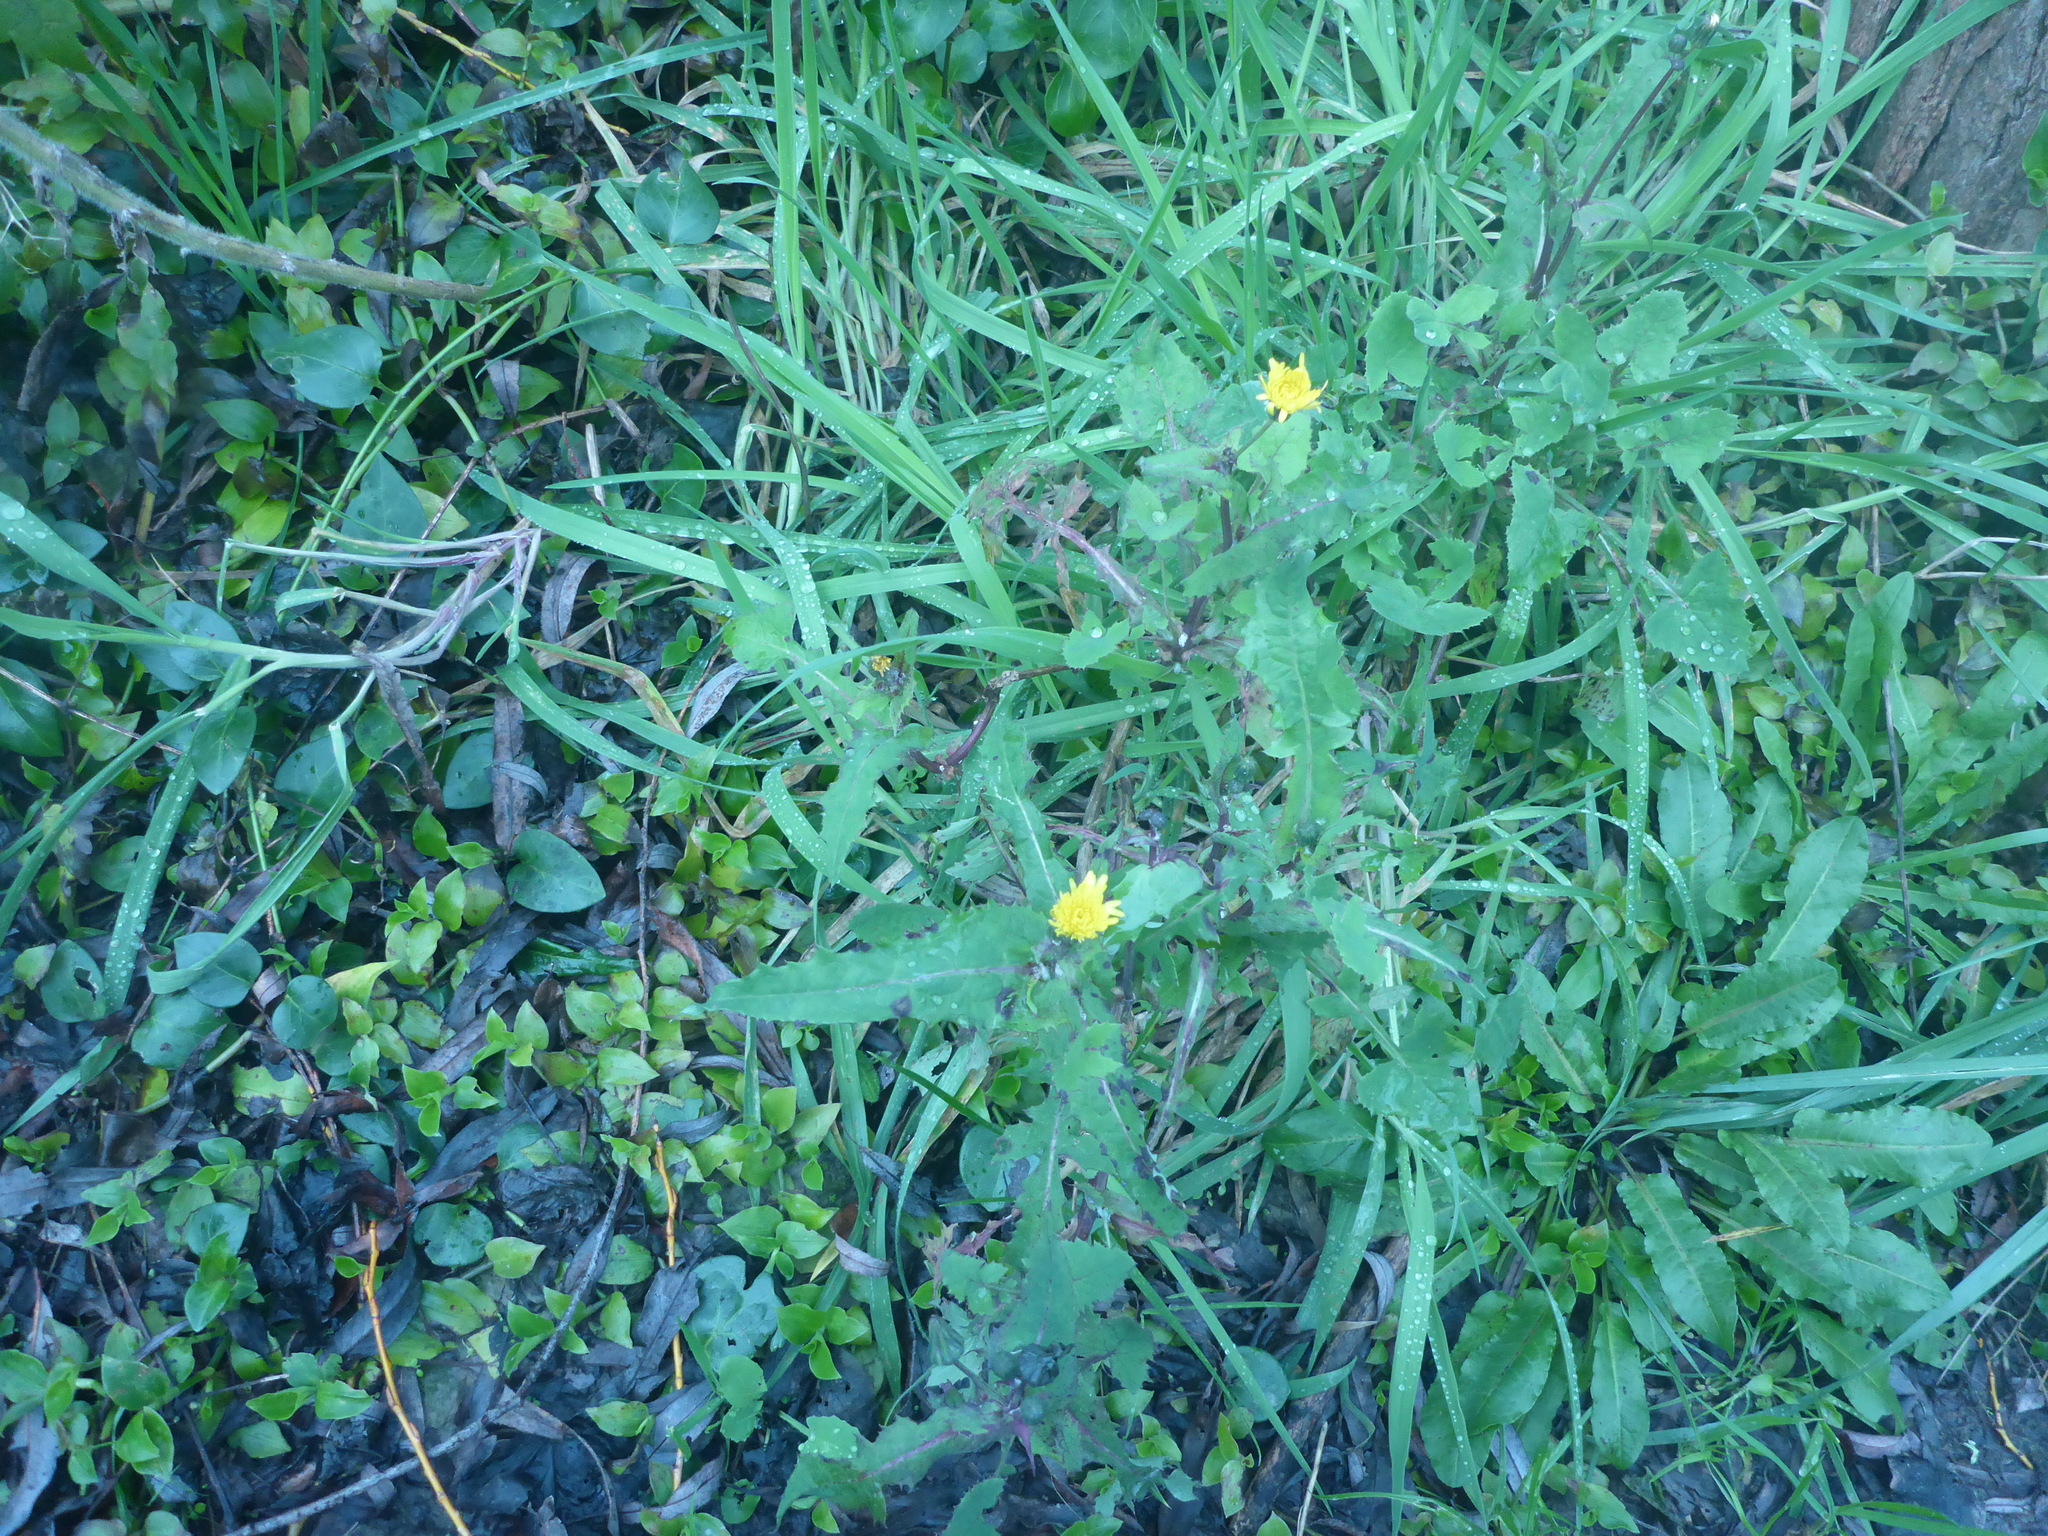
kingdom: Plantae
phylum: Tracheophyta
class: Magnoliopsida
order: Asterales
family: Asteraceae
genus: Sonchus
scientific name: Sonchus oleraceus
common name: Common sowthistle
